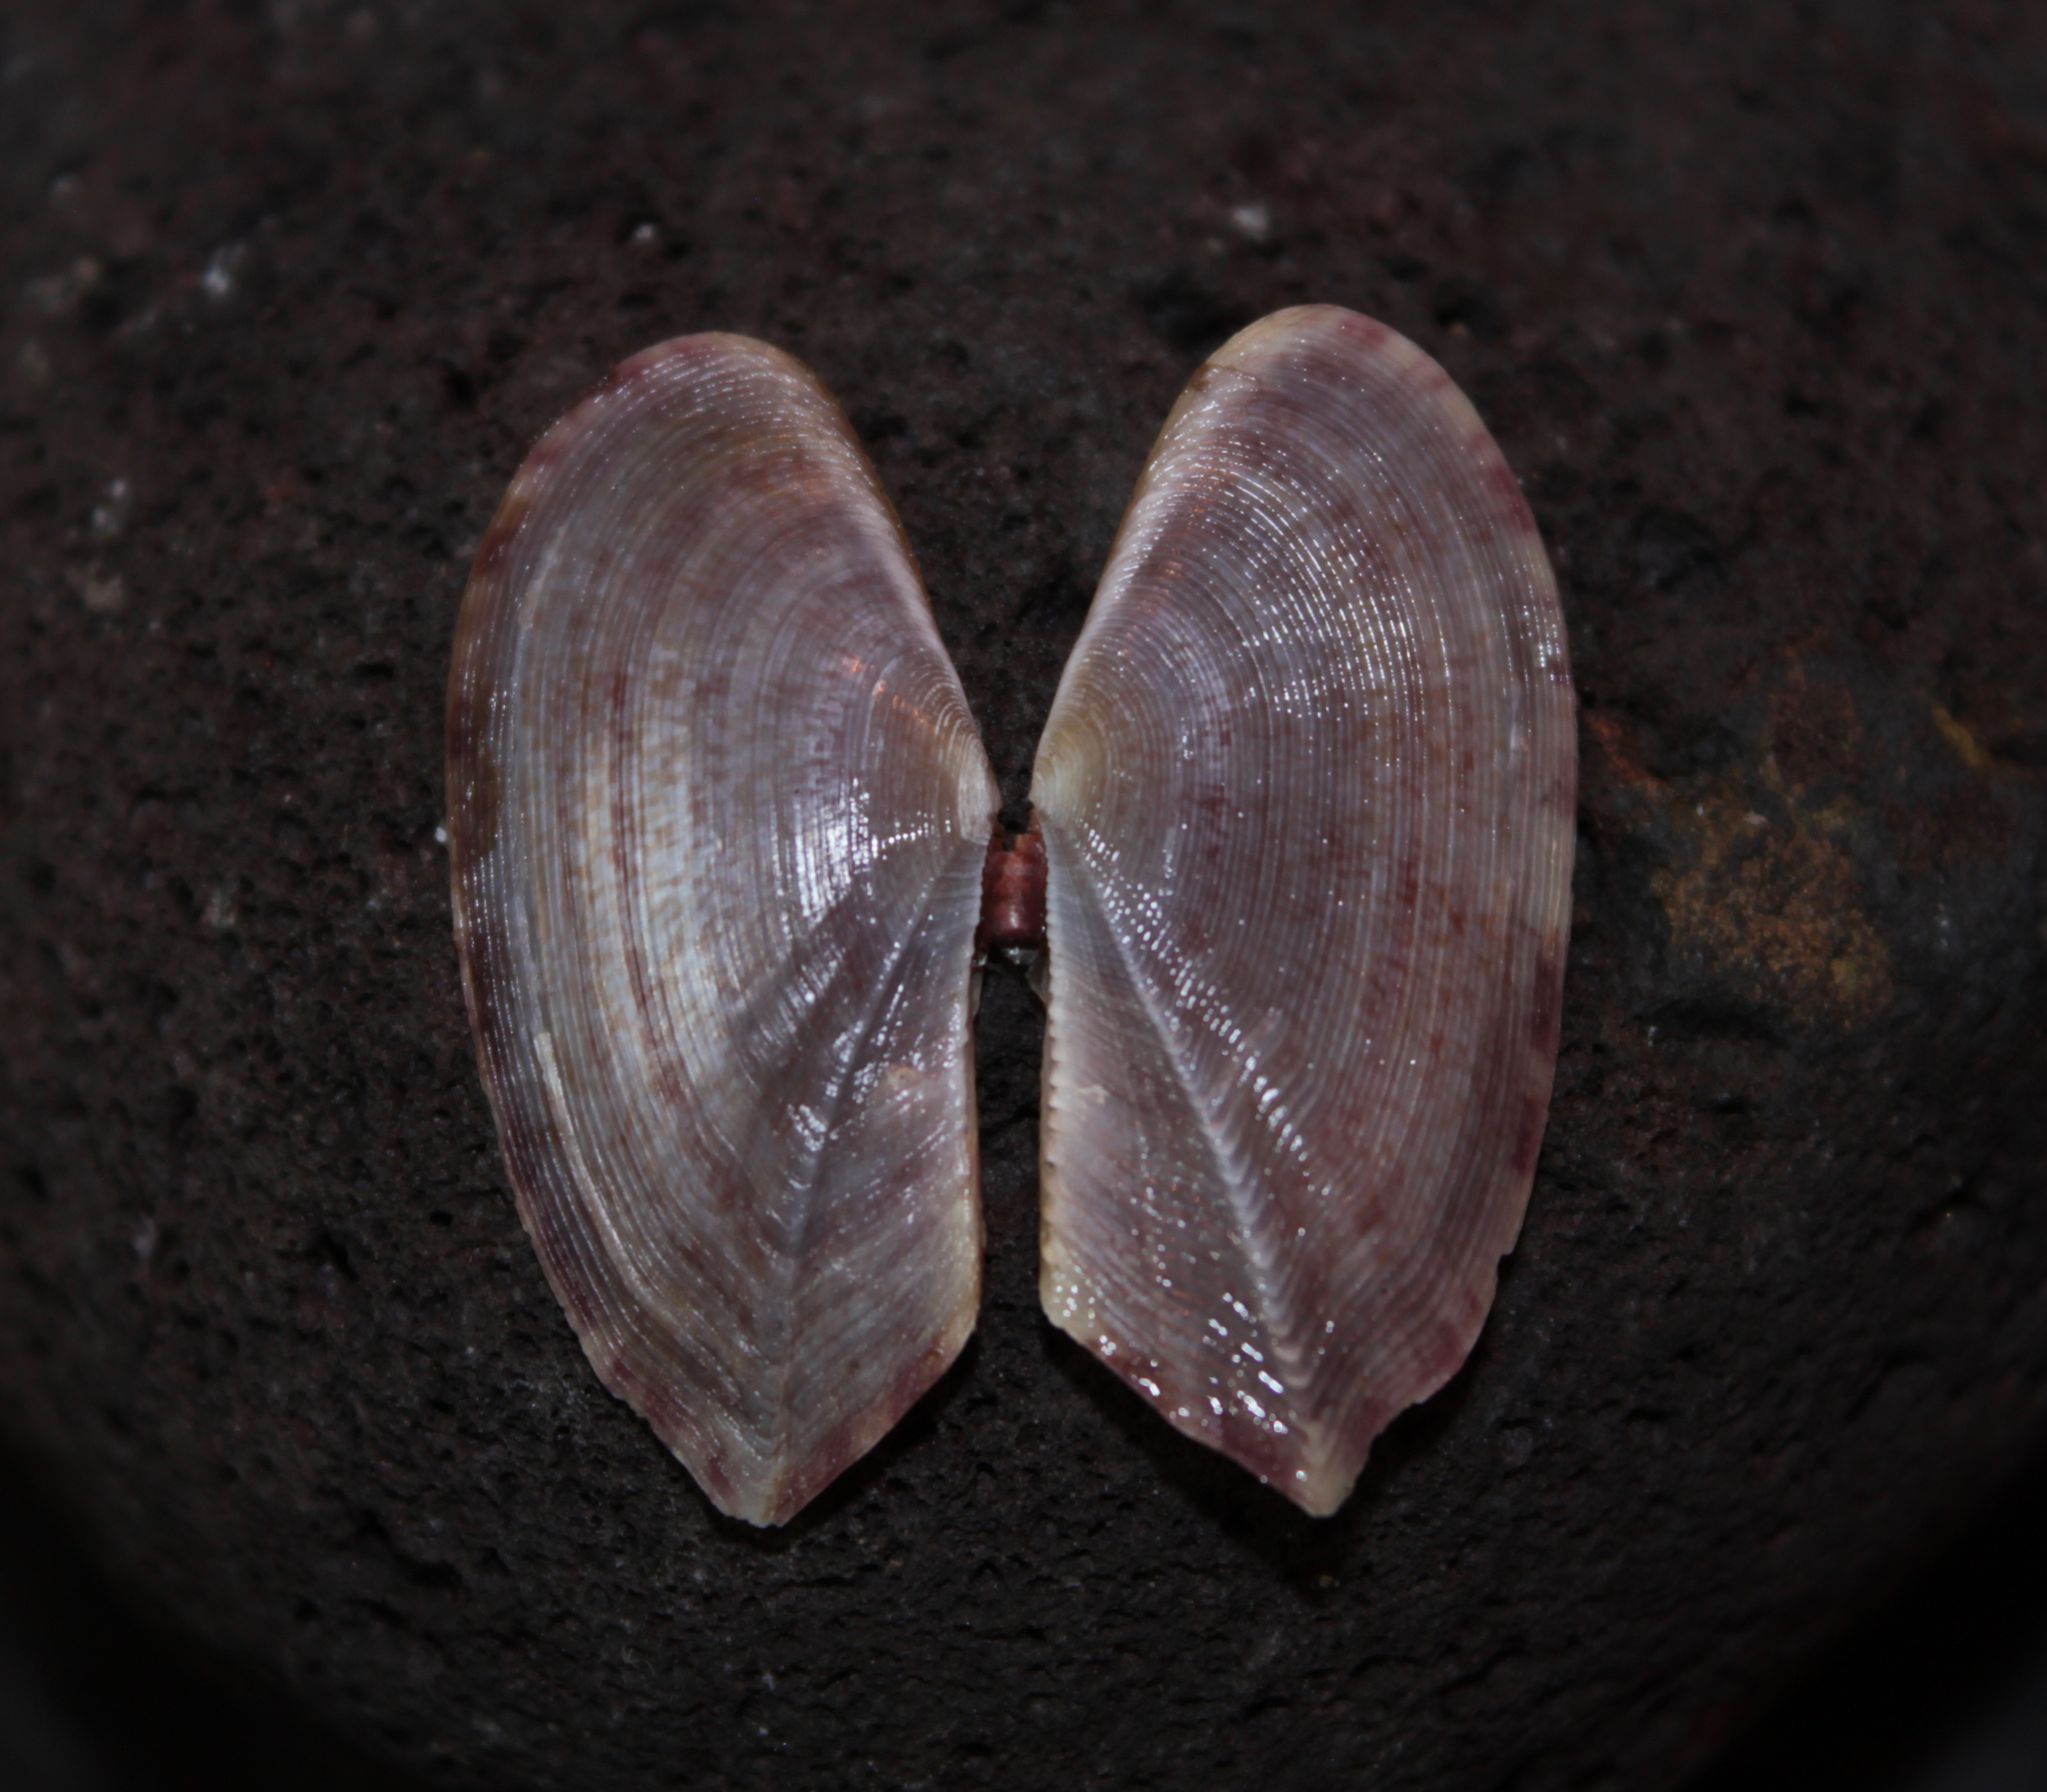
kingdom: Animalia
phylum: Mollusca
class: Bivalvia
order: Cardiida
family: Psammobiidae
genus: Gari
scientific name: Gari fervensis
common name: Faroe sunset shell
